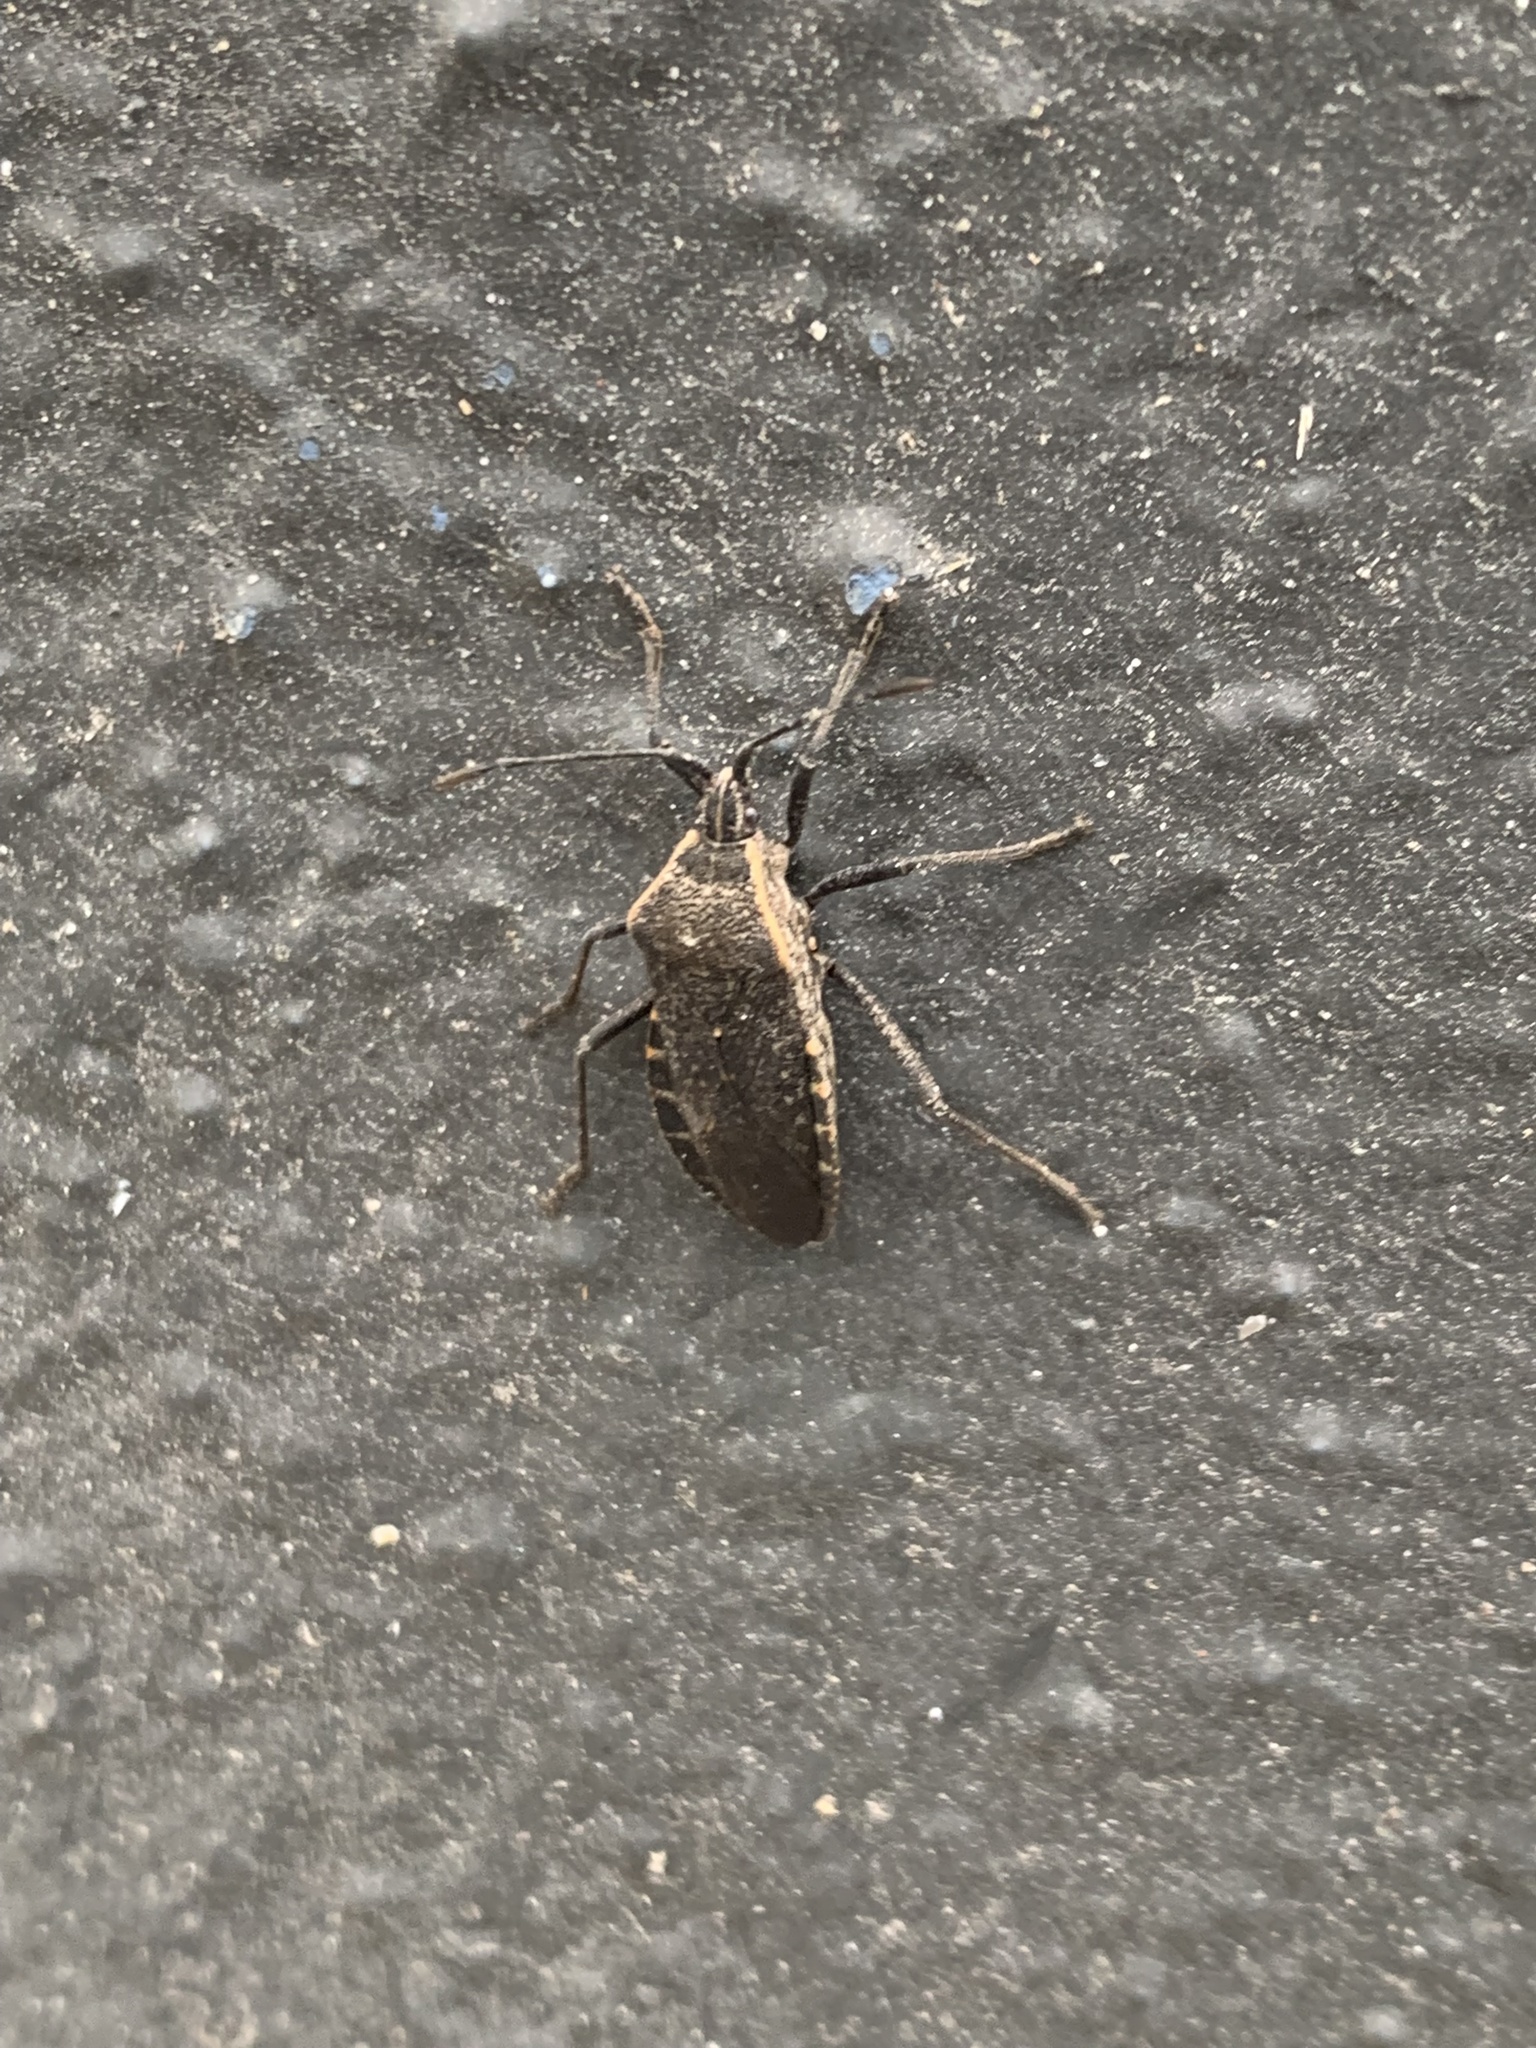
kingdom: Animalia
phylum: Arthropoda
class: Insecta
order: Hemiptera
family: Coreidae
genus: Anasa
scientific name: Anasa tristis
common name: Squash bug
